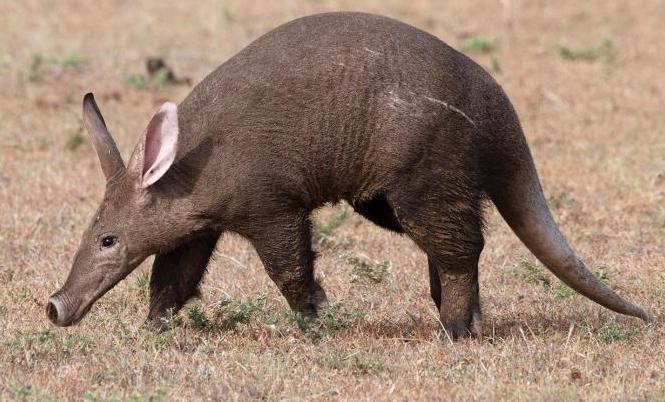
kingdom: Animalia
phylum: Chordata
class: Mammalia
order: Tubulidentata
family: Orycteropodidae
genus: Orycteropus
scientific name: Orycteropus afer
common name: Aardvark
